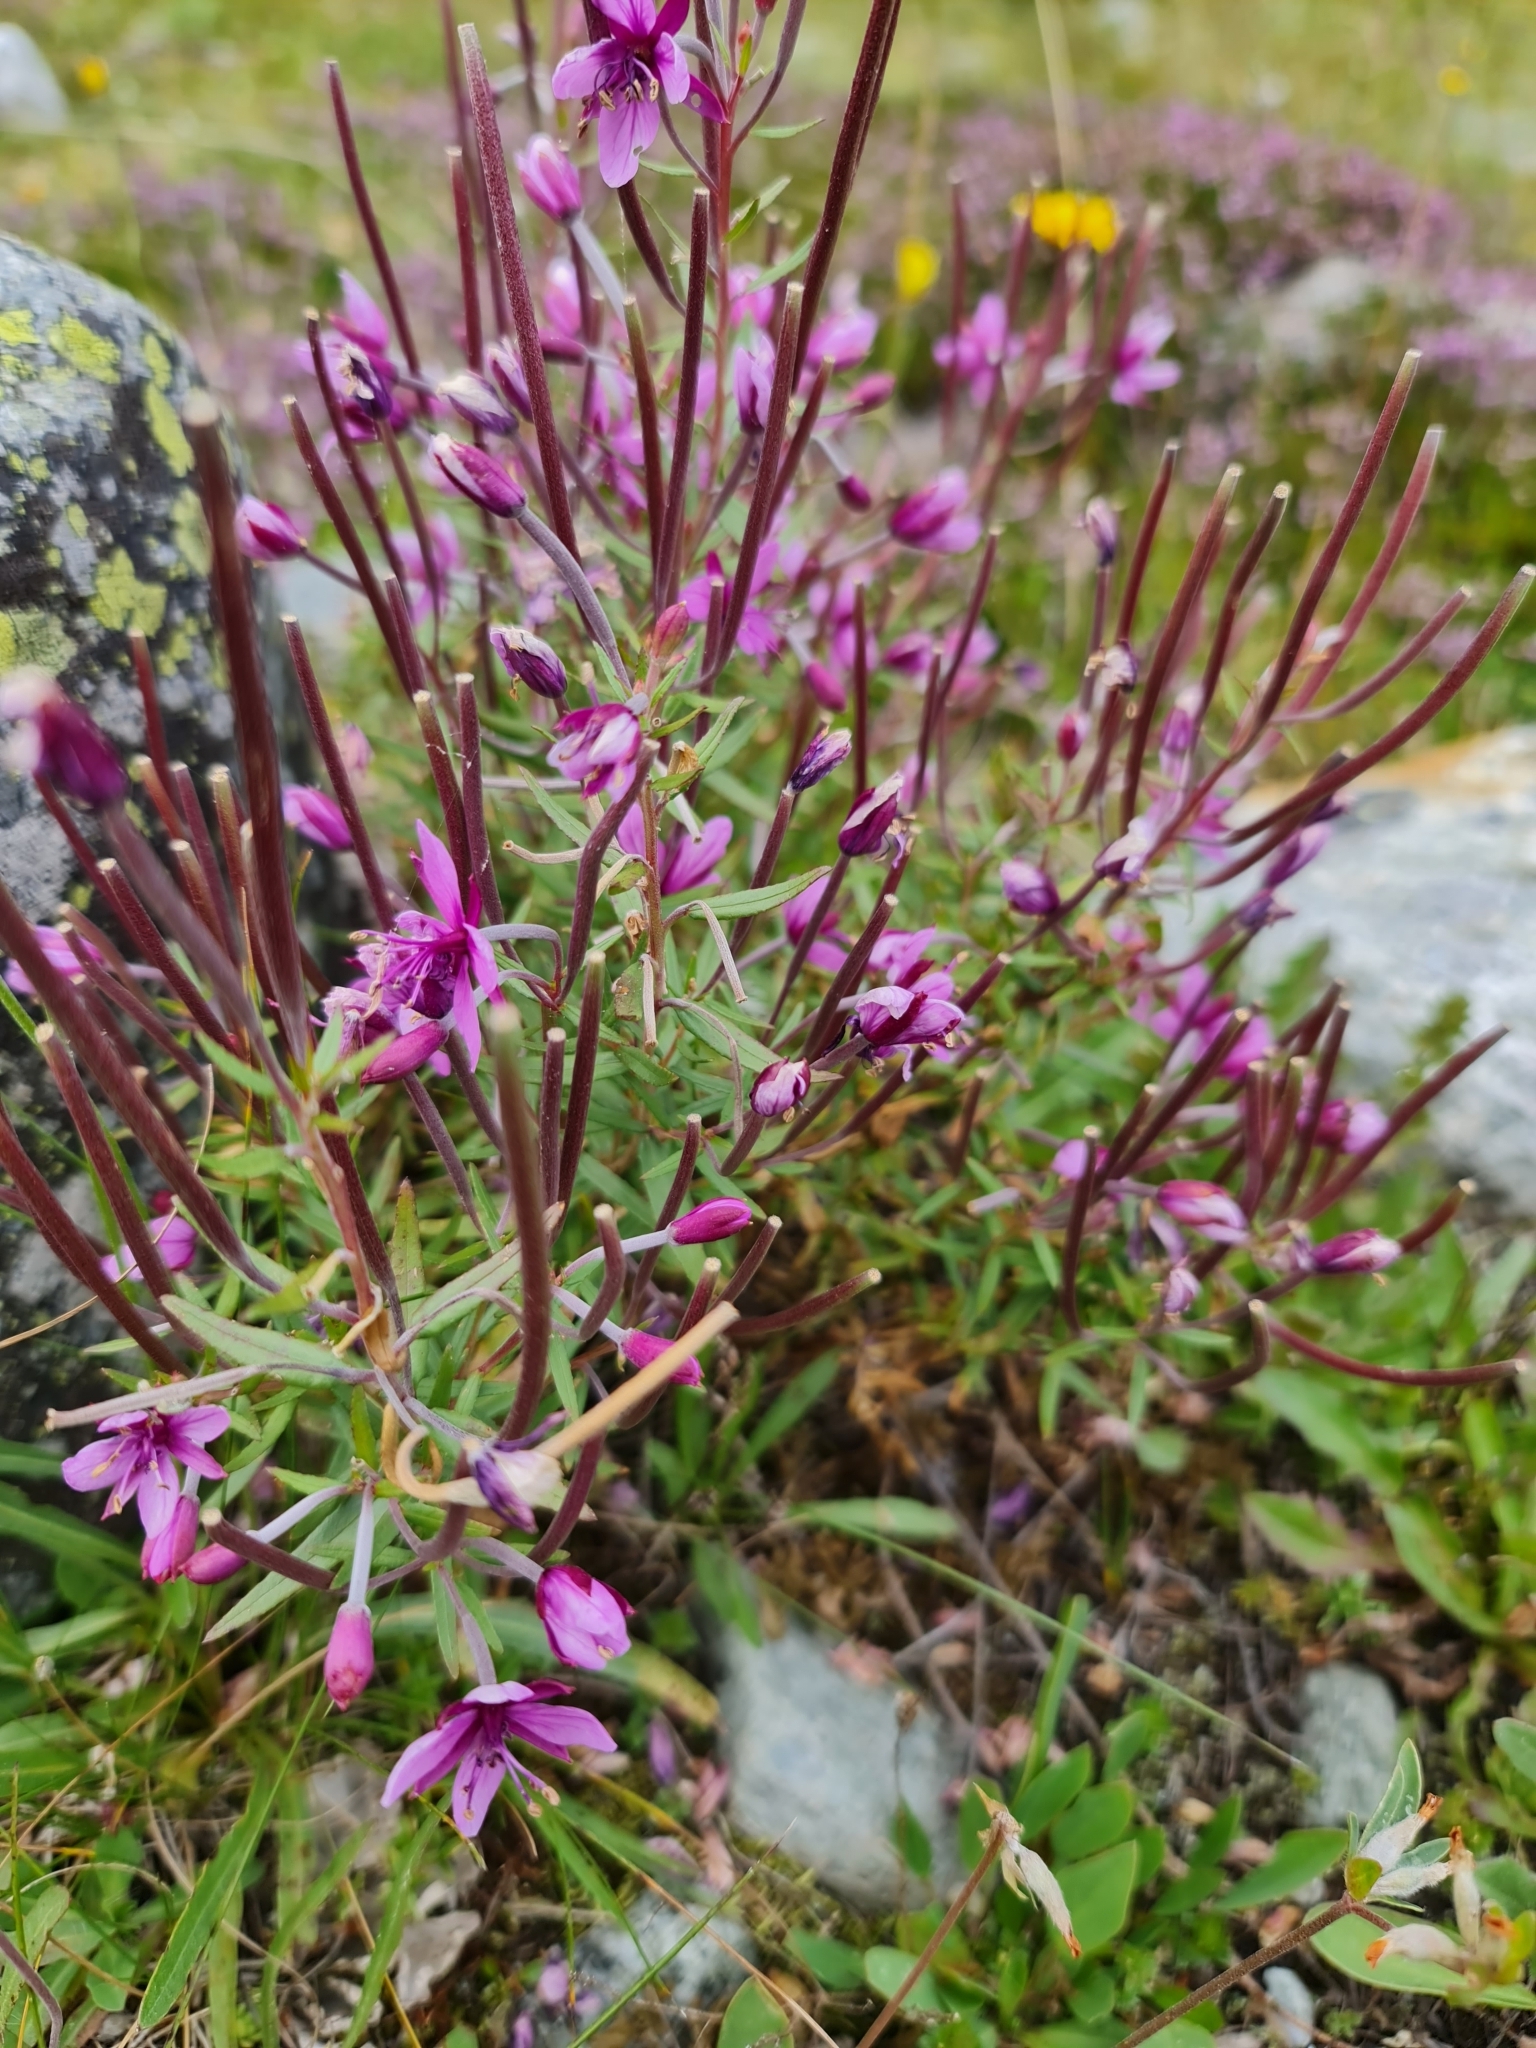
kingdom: Plantae
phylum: Tracheophyta
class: Magnoliopsida
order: Myrtales
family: Onagraceae
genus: Chamaenerion
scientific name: Chamaenerion fleischeri
